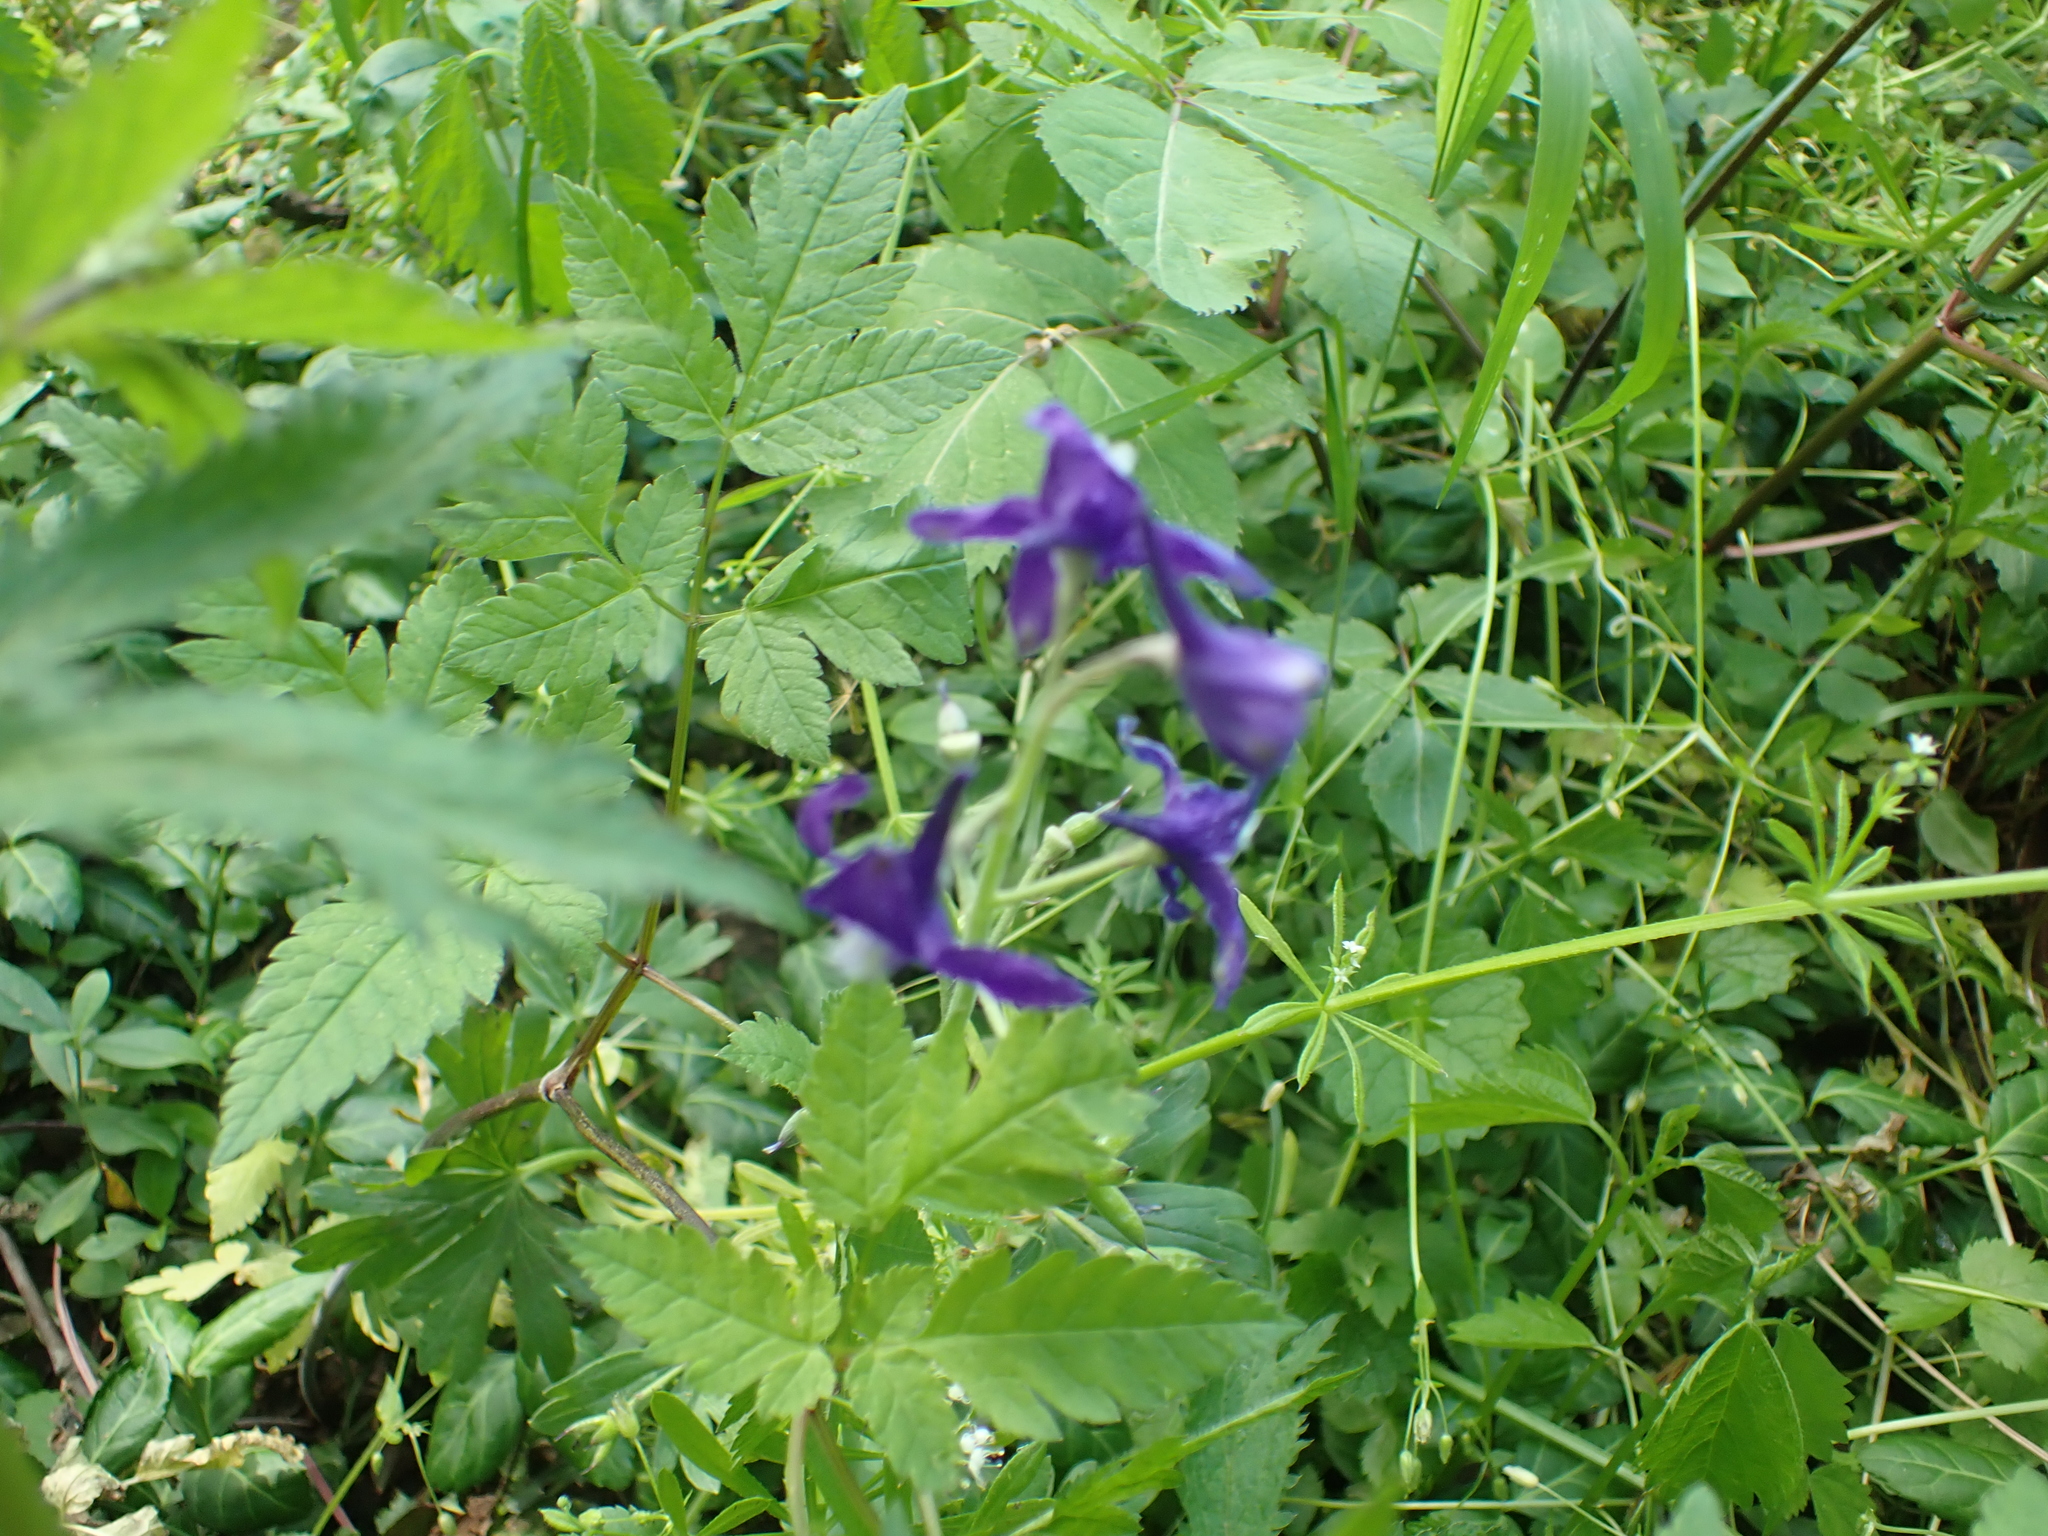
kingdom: Plantae
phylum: Tracheophyta
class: Magnoliopsida
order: Ranunculales
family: Ranunculaceae
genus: Delphinium
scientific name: Delphinium tricorne
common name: Dwarf larkspur
